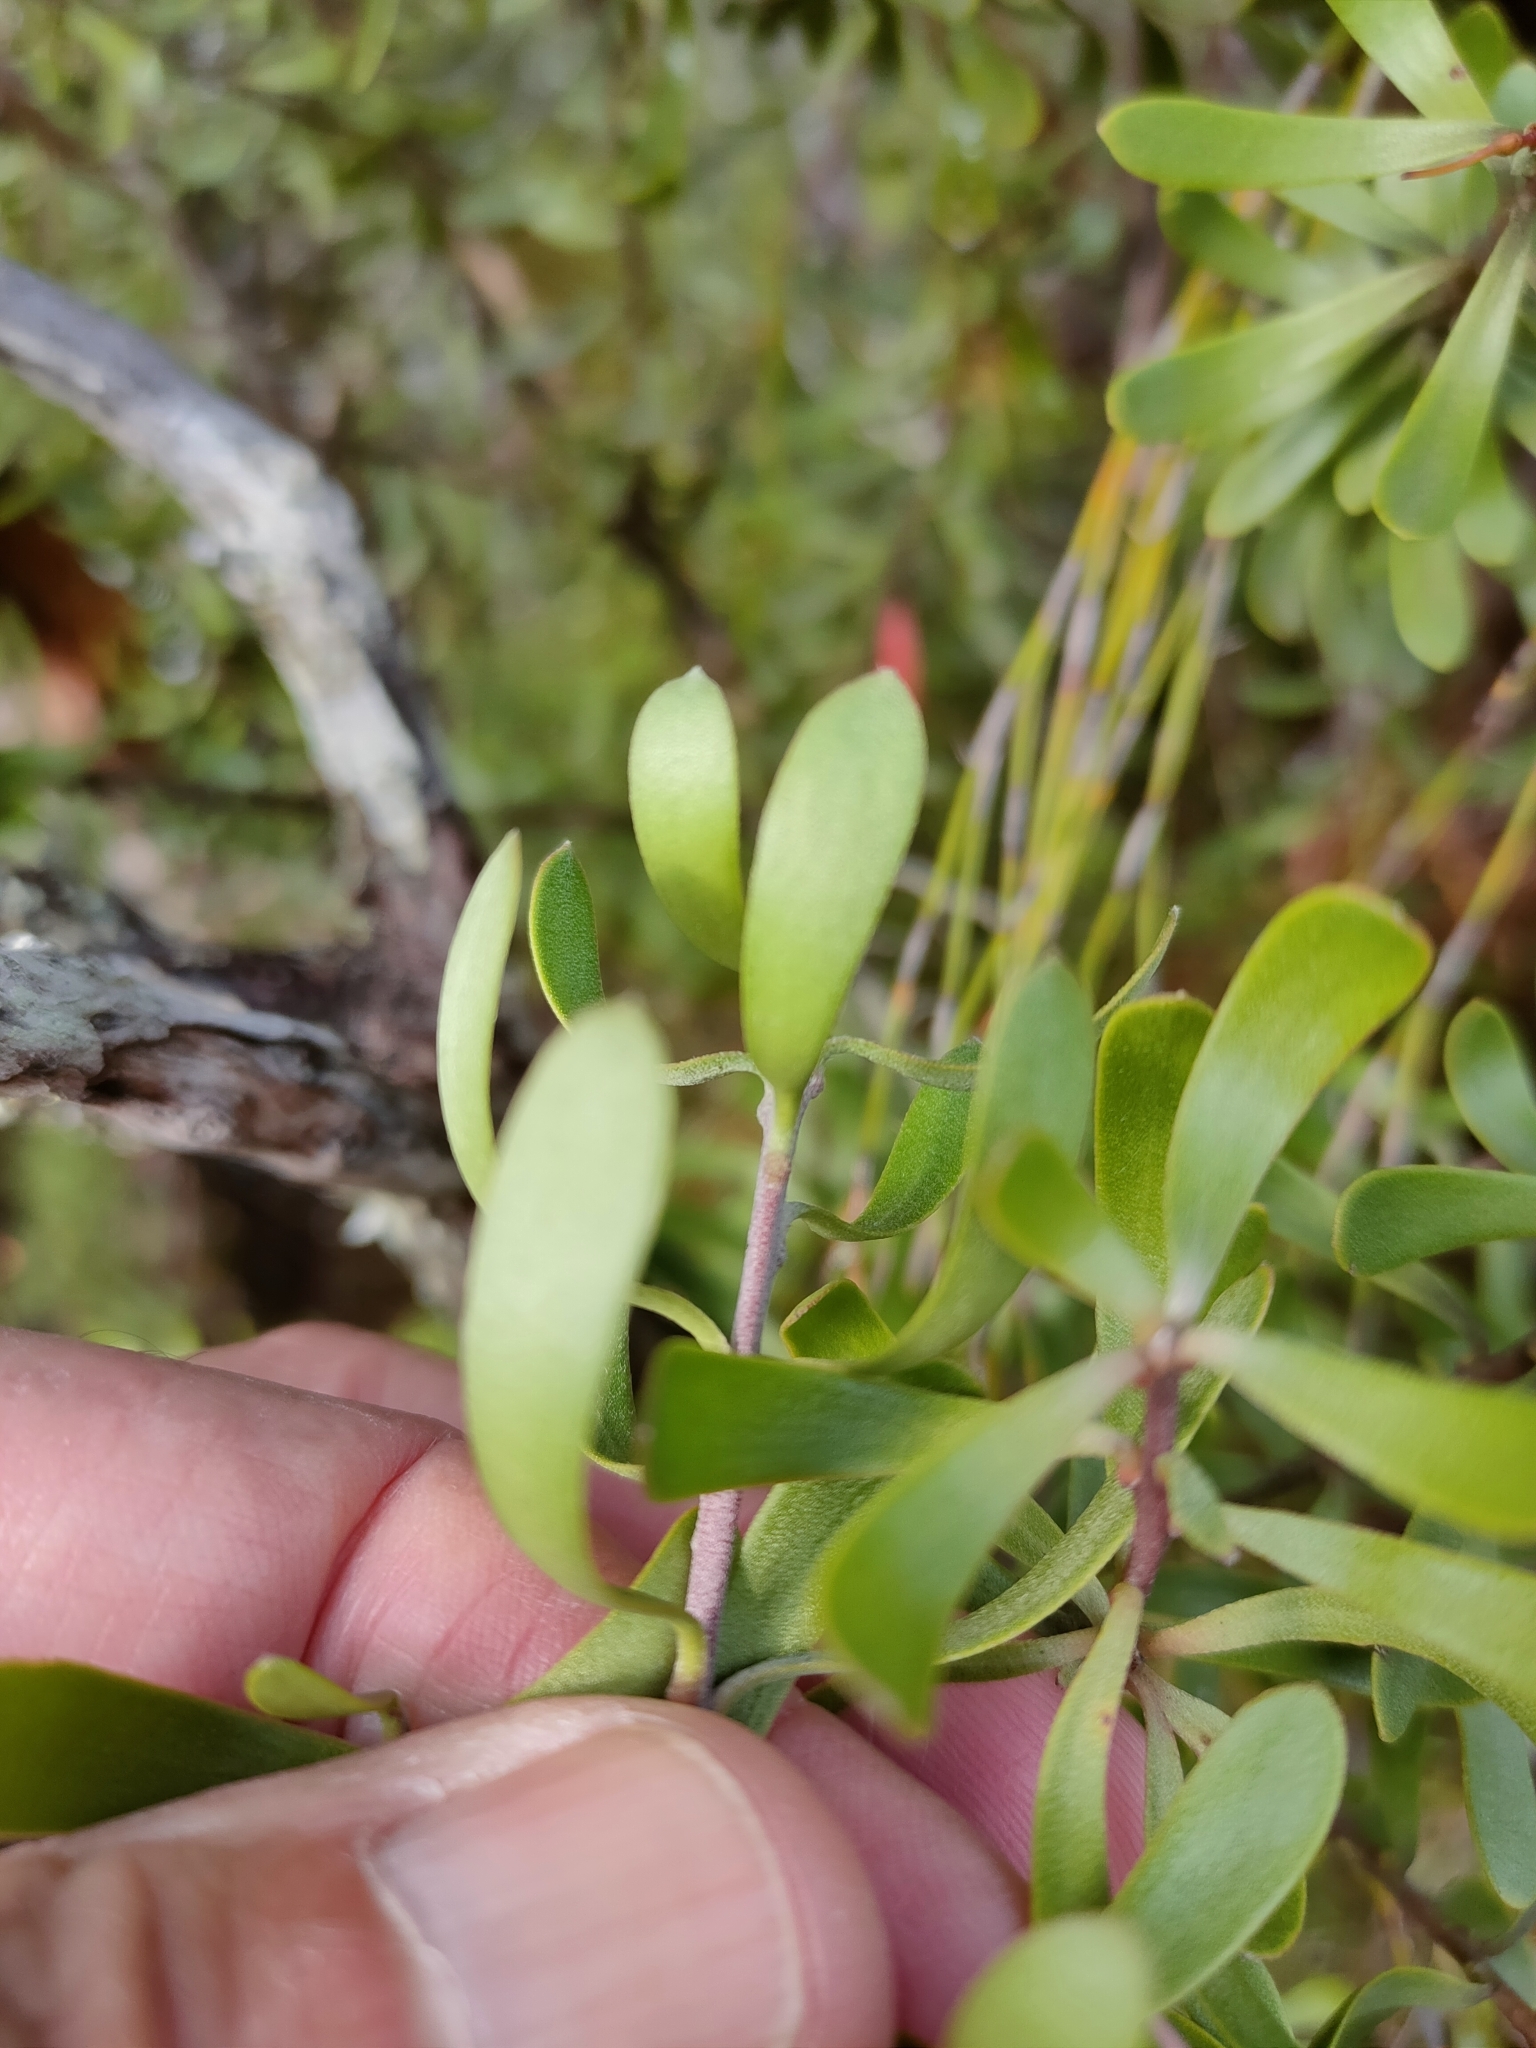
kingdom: Plantae
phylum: Tracheophyta
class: Magnoliopsida
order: Proteales
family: Proteaceae
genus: Persoonia
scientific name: Persoonia gunnii
